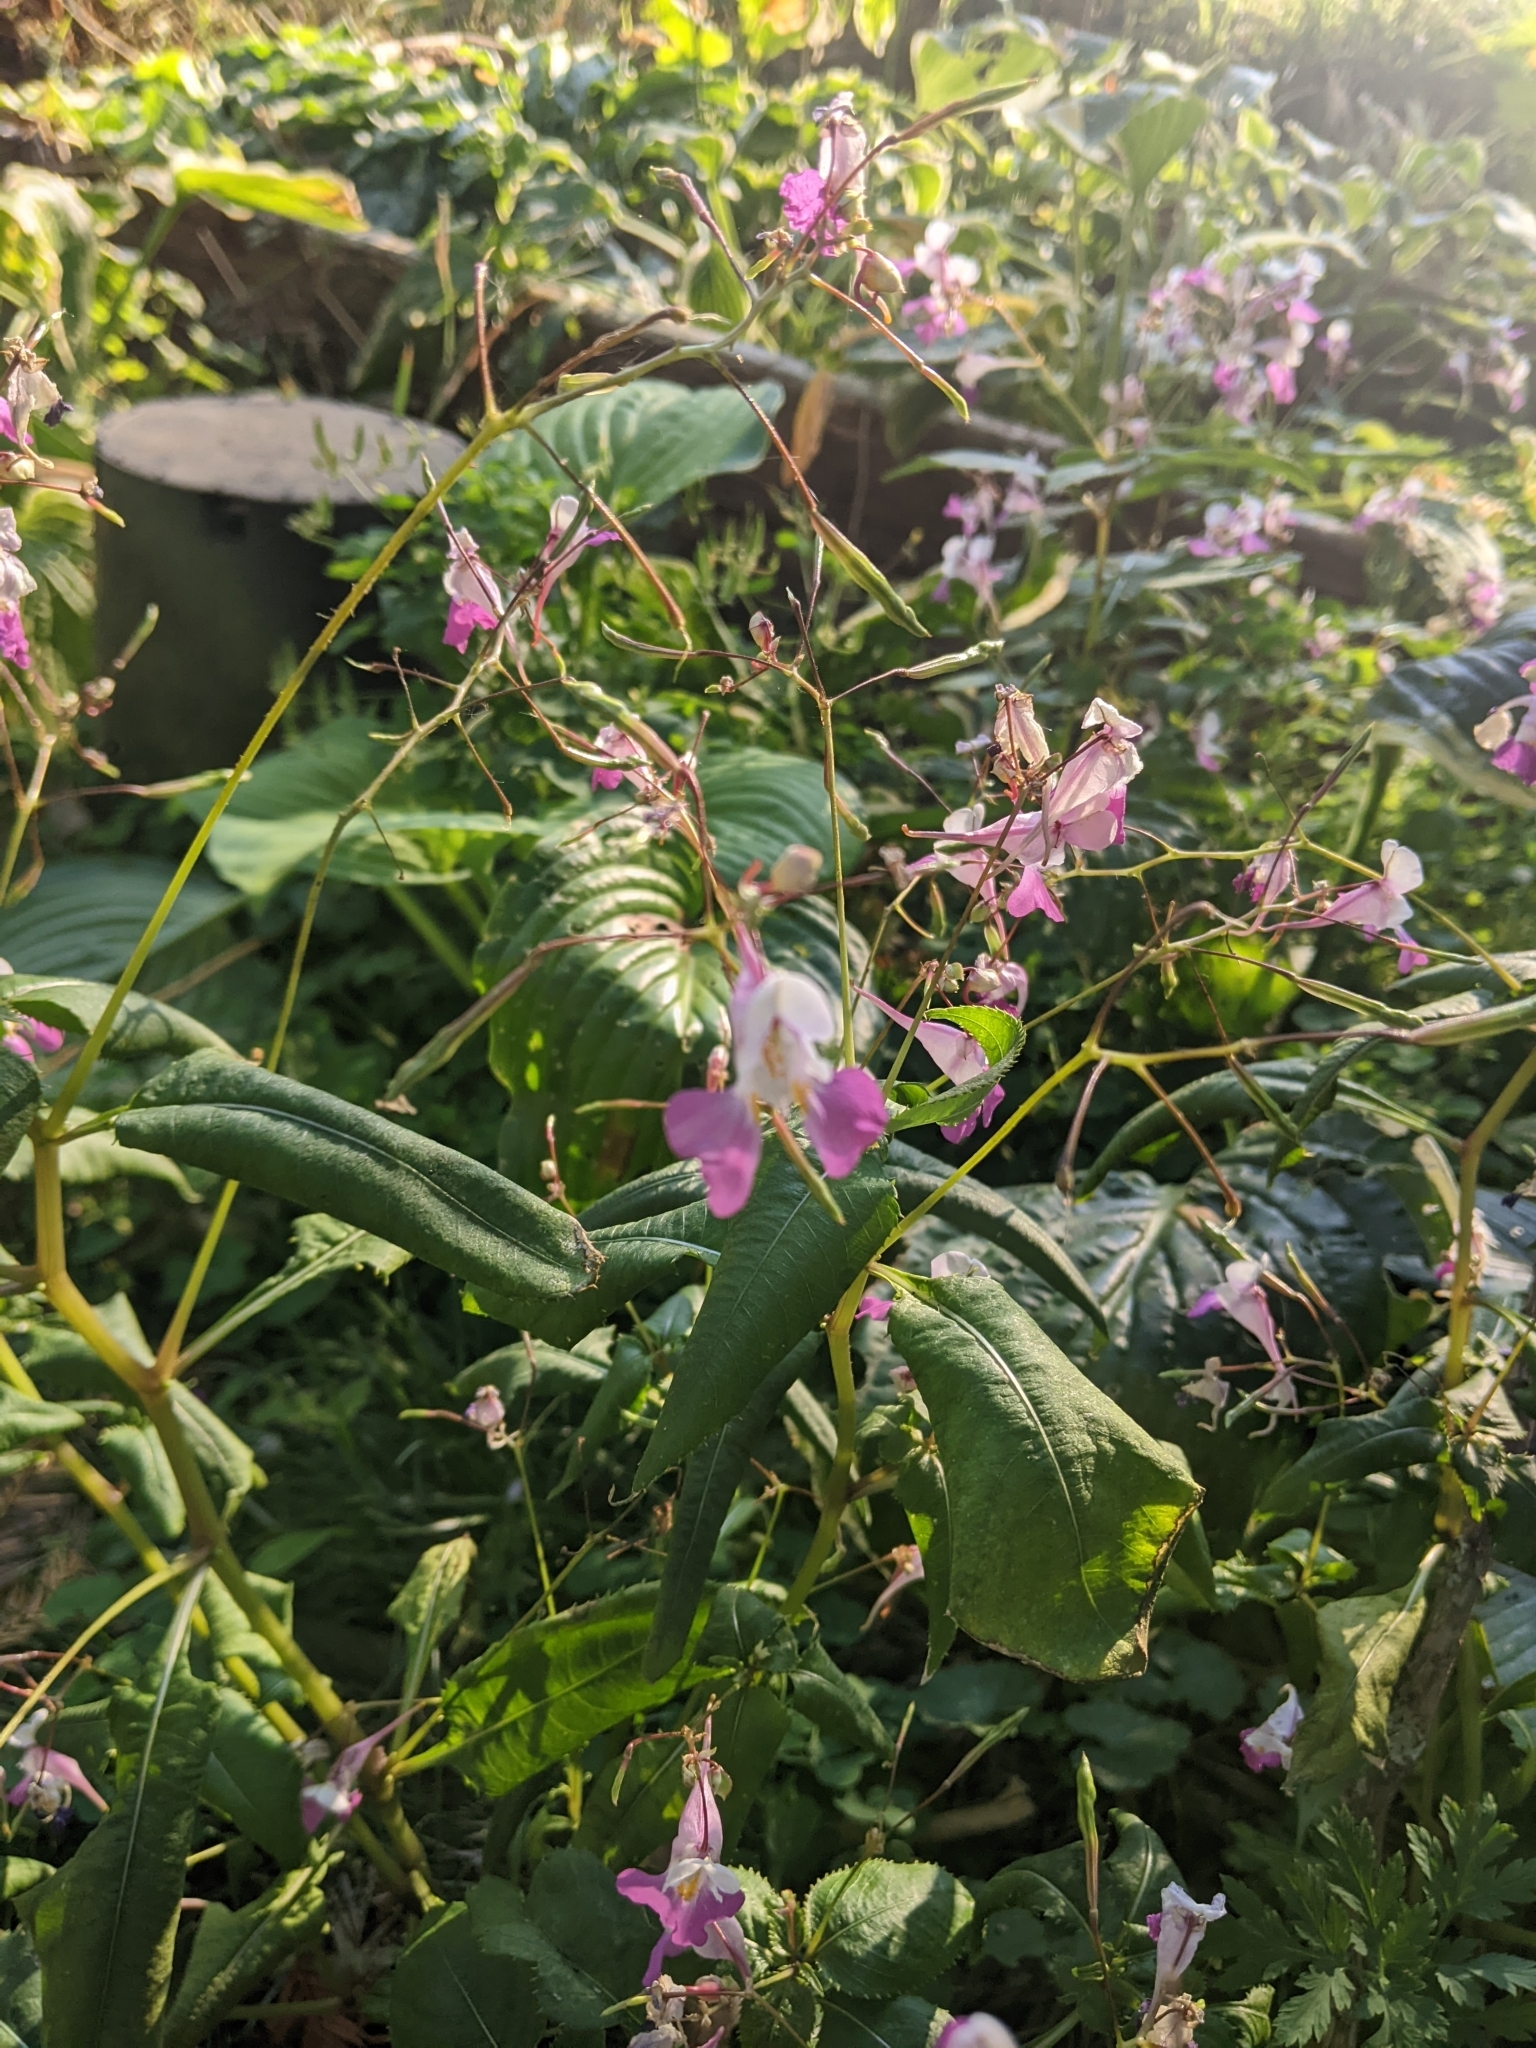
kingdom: Plantae
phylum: Tracheophyta
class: Magnoliopsida
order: Ericales
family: Balsaminaceae
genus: Impatiens
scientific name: Impatiens balfourii
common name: Balfour's touch-me-not
